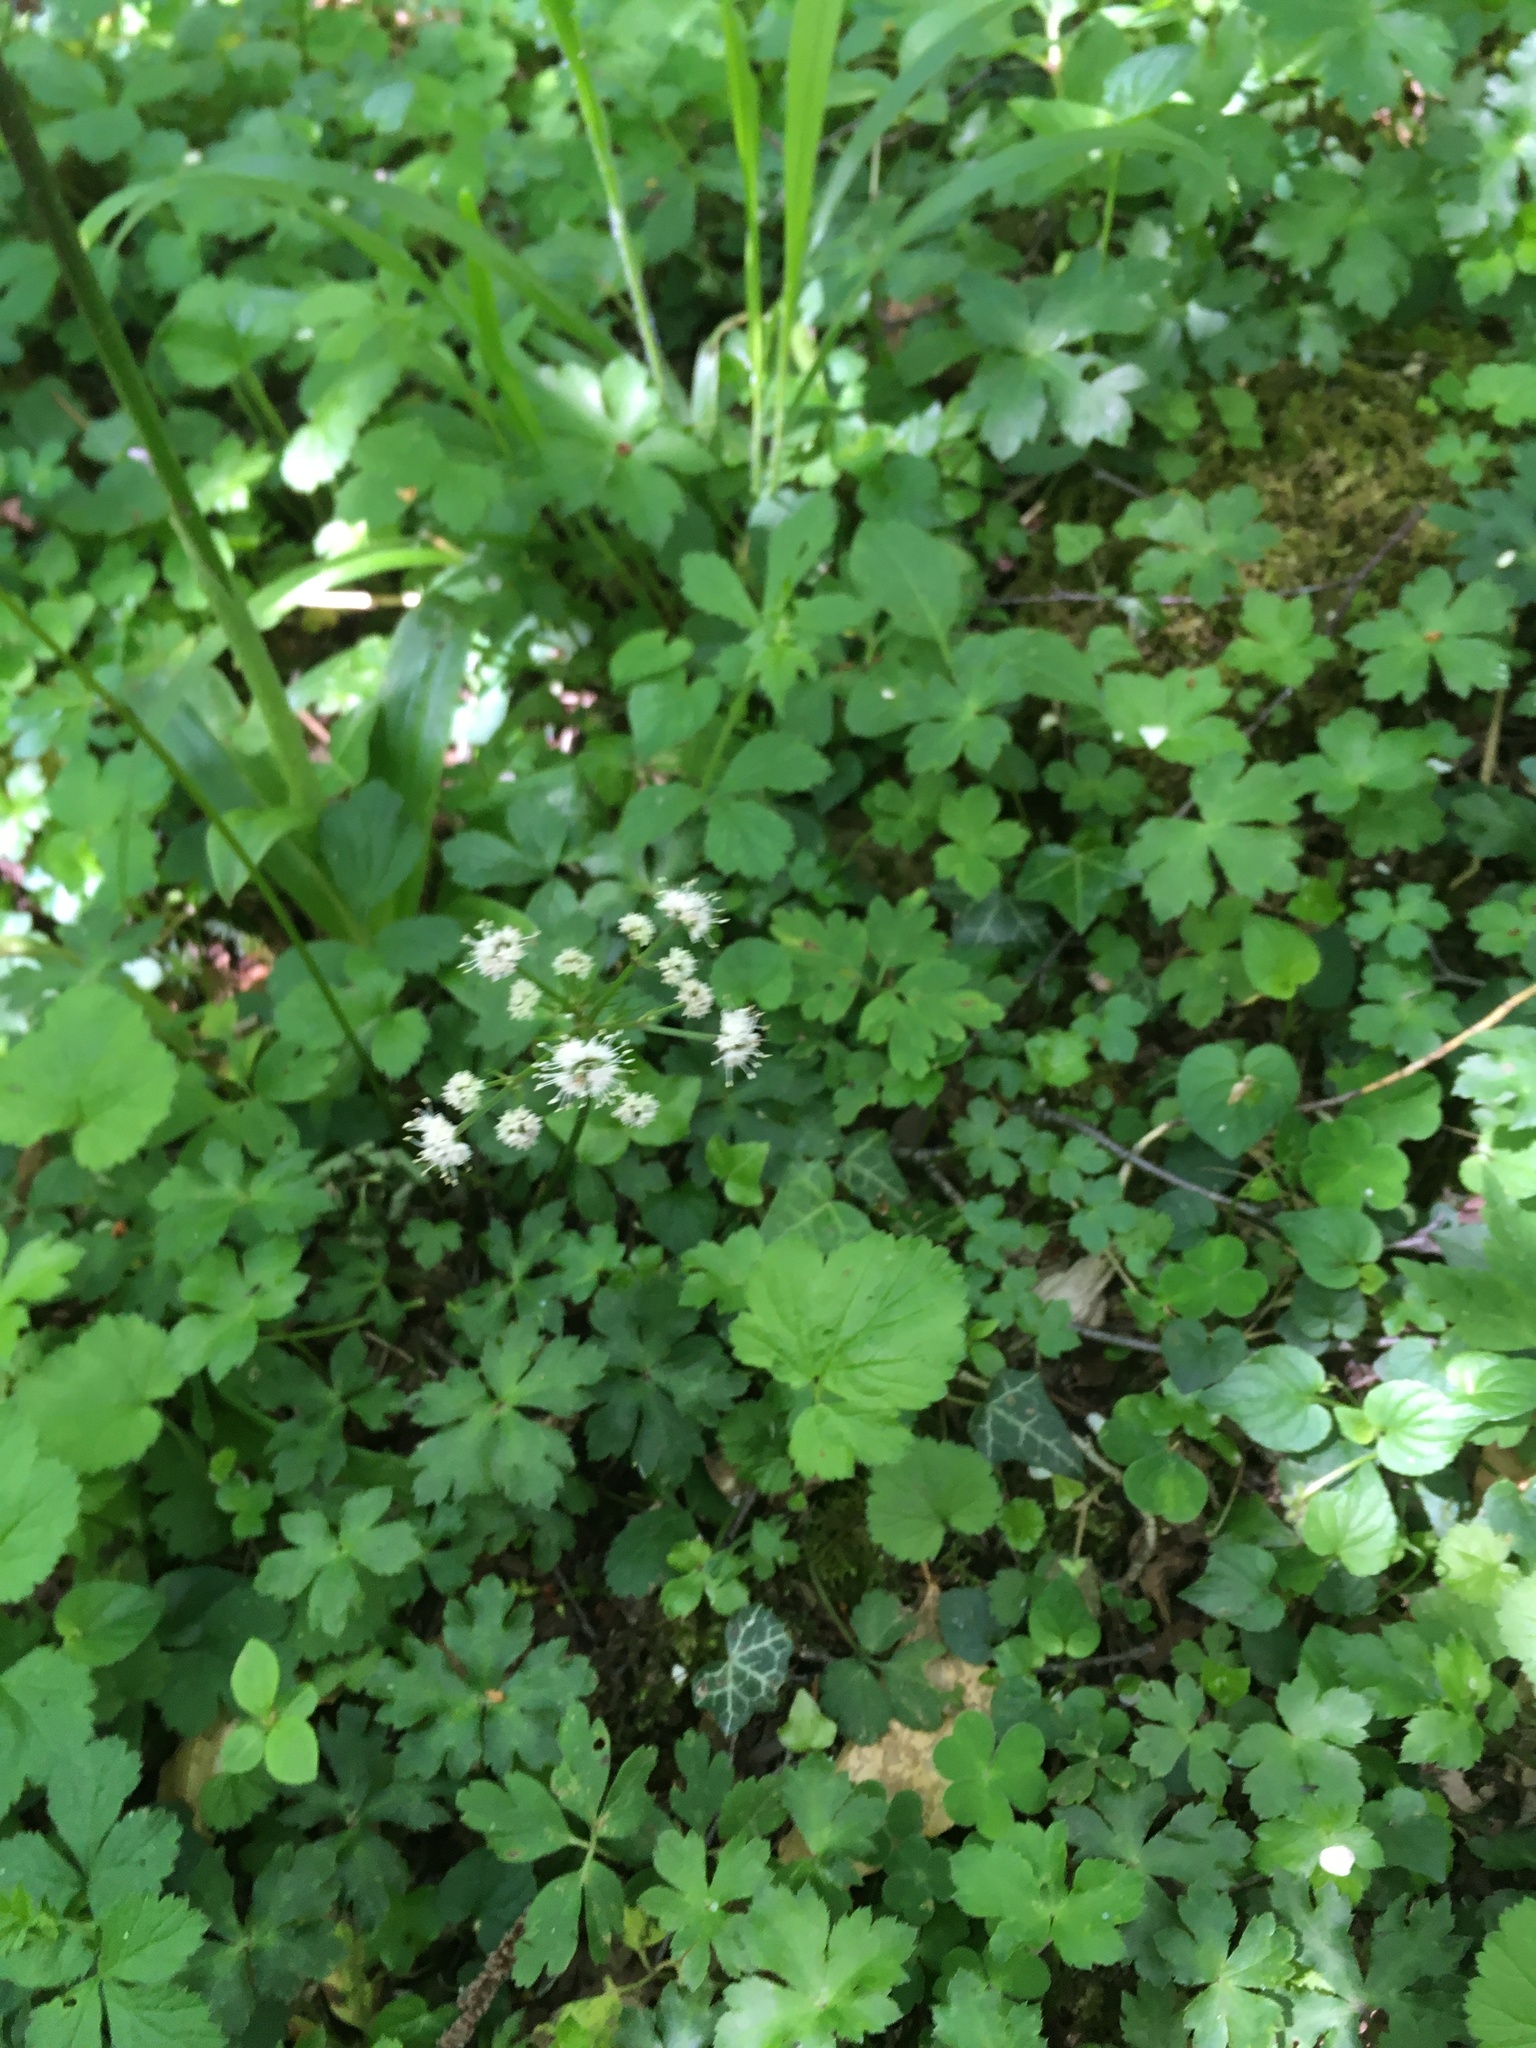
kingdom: Plantae
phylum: Tracheophyta
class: Magnoliopsida
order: Apiales
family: Apiaceae
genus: Sanicula
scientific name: Sanicula europaea
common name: Sanicle
